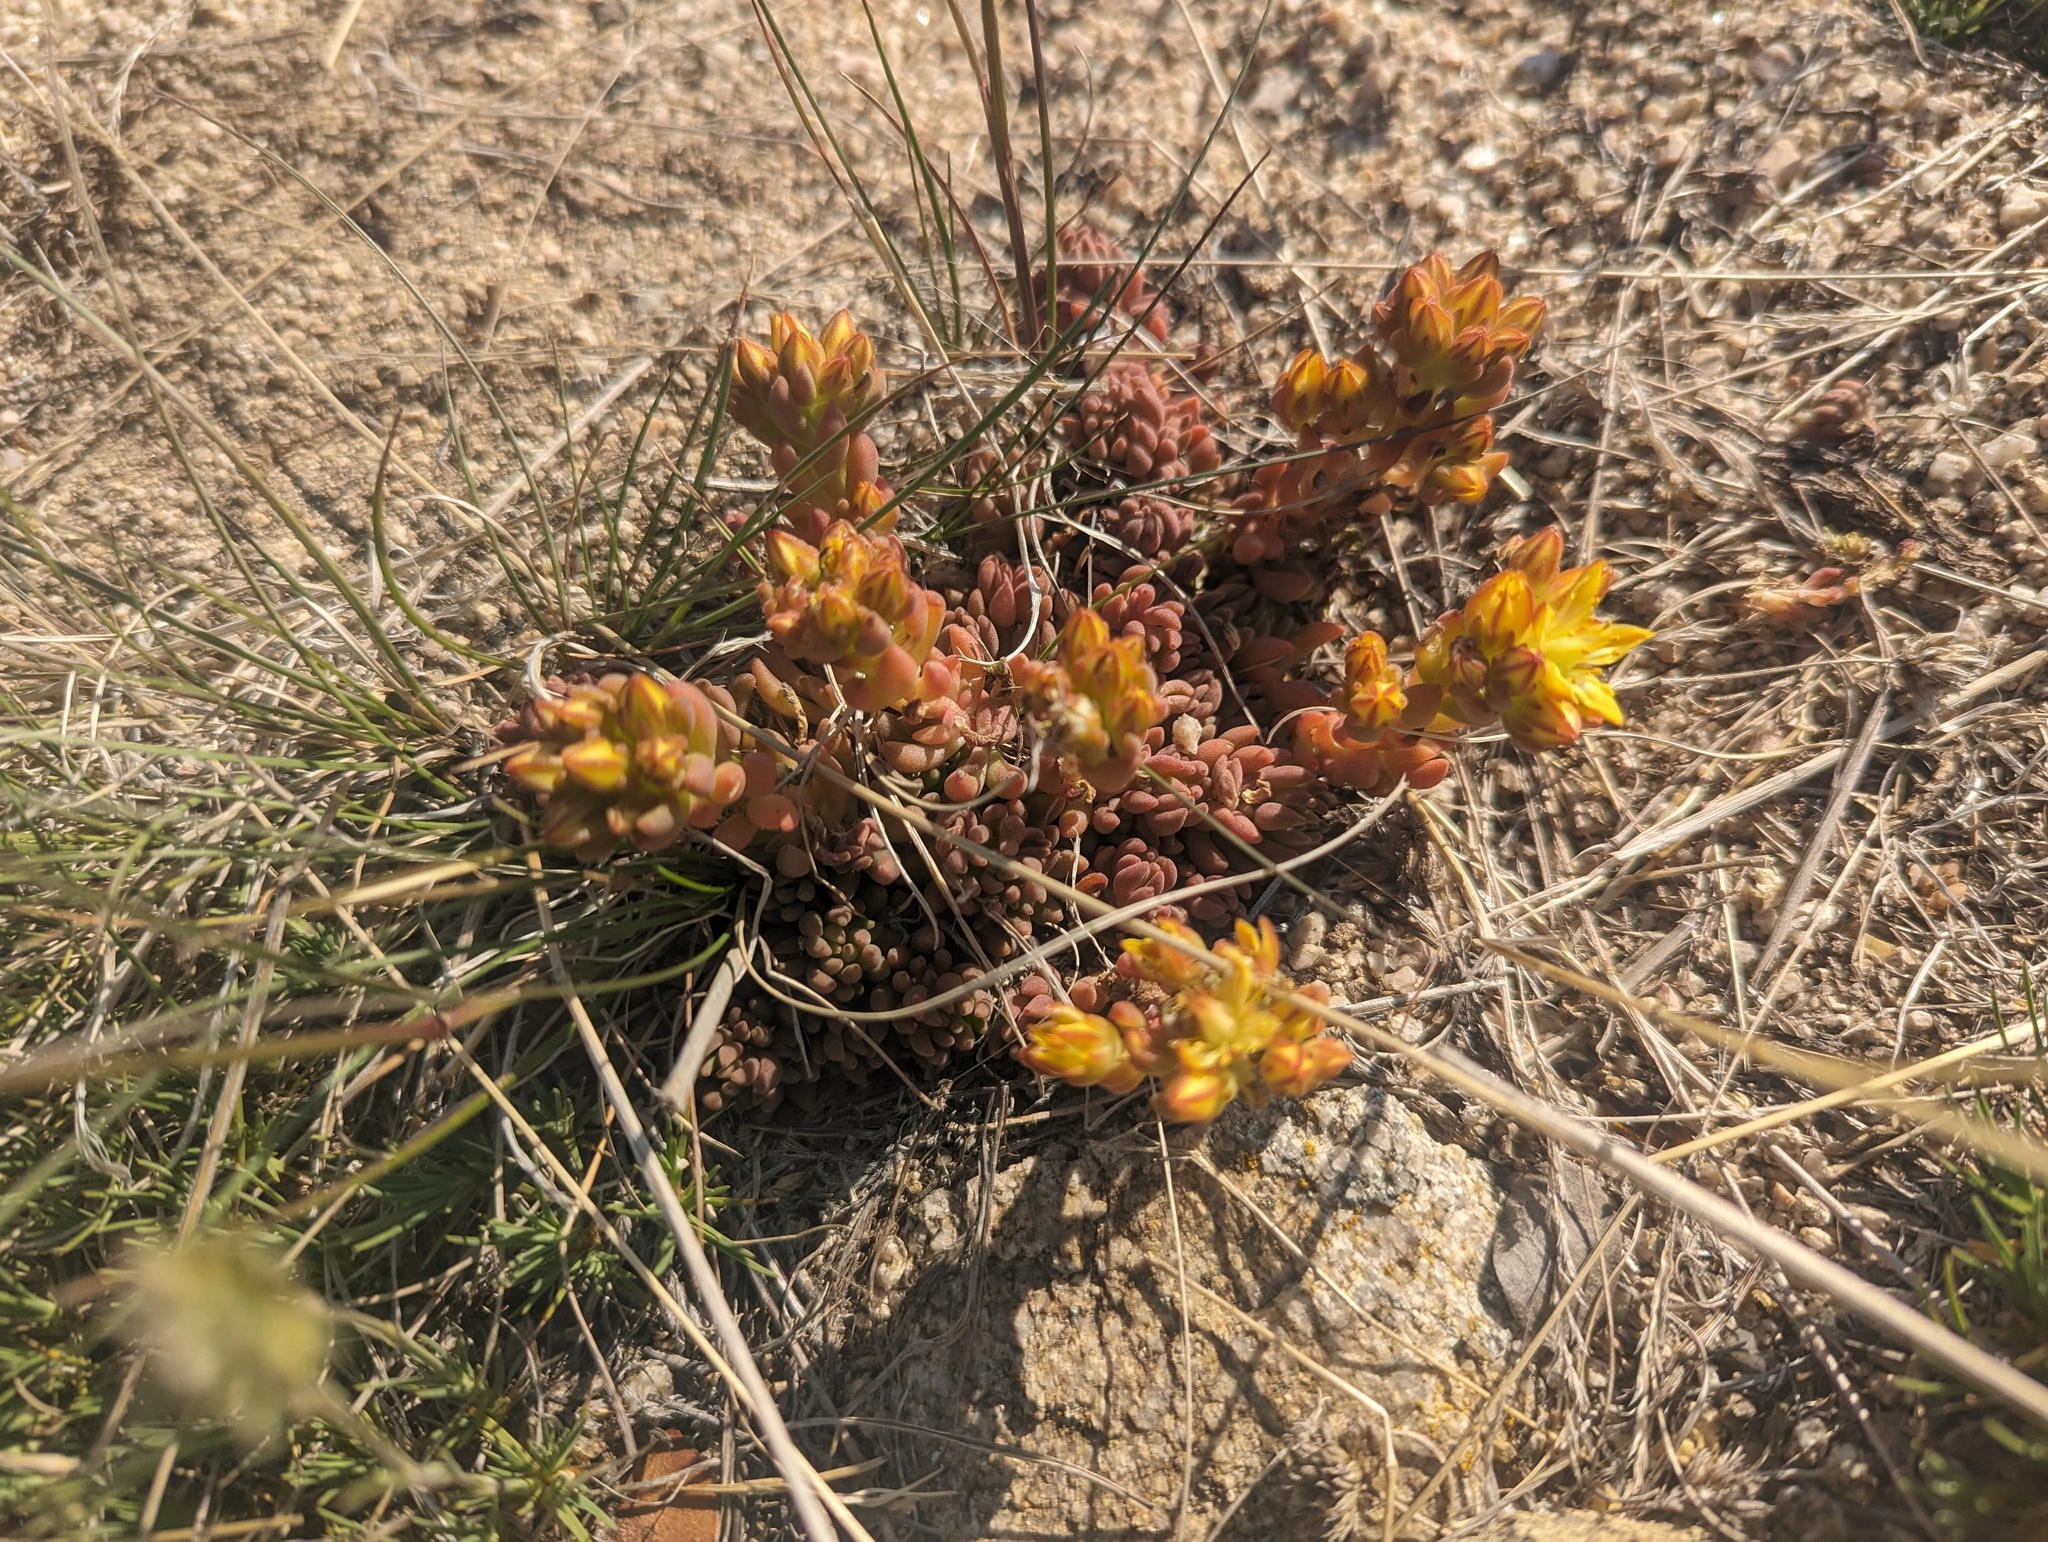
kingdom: Plantae
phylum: Tracheophyta
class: Magnoliopsida
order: Saxifragales
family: Crassulaceae
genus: Sedum
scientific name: Sedum lanceolatum
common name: Common stonecrop
